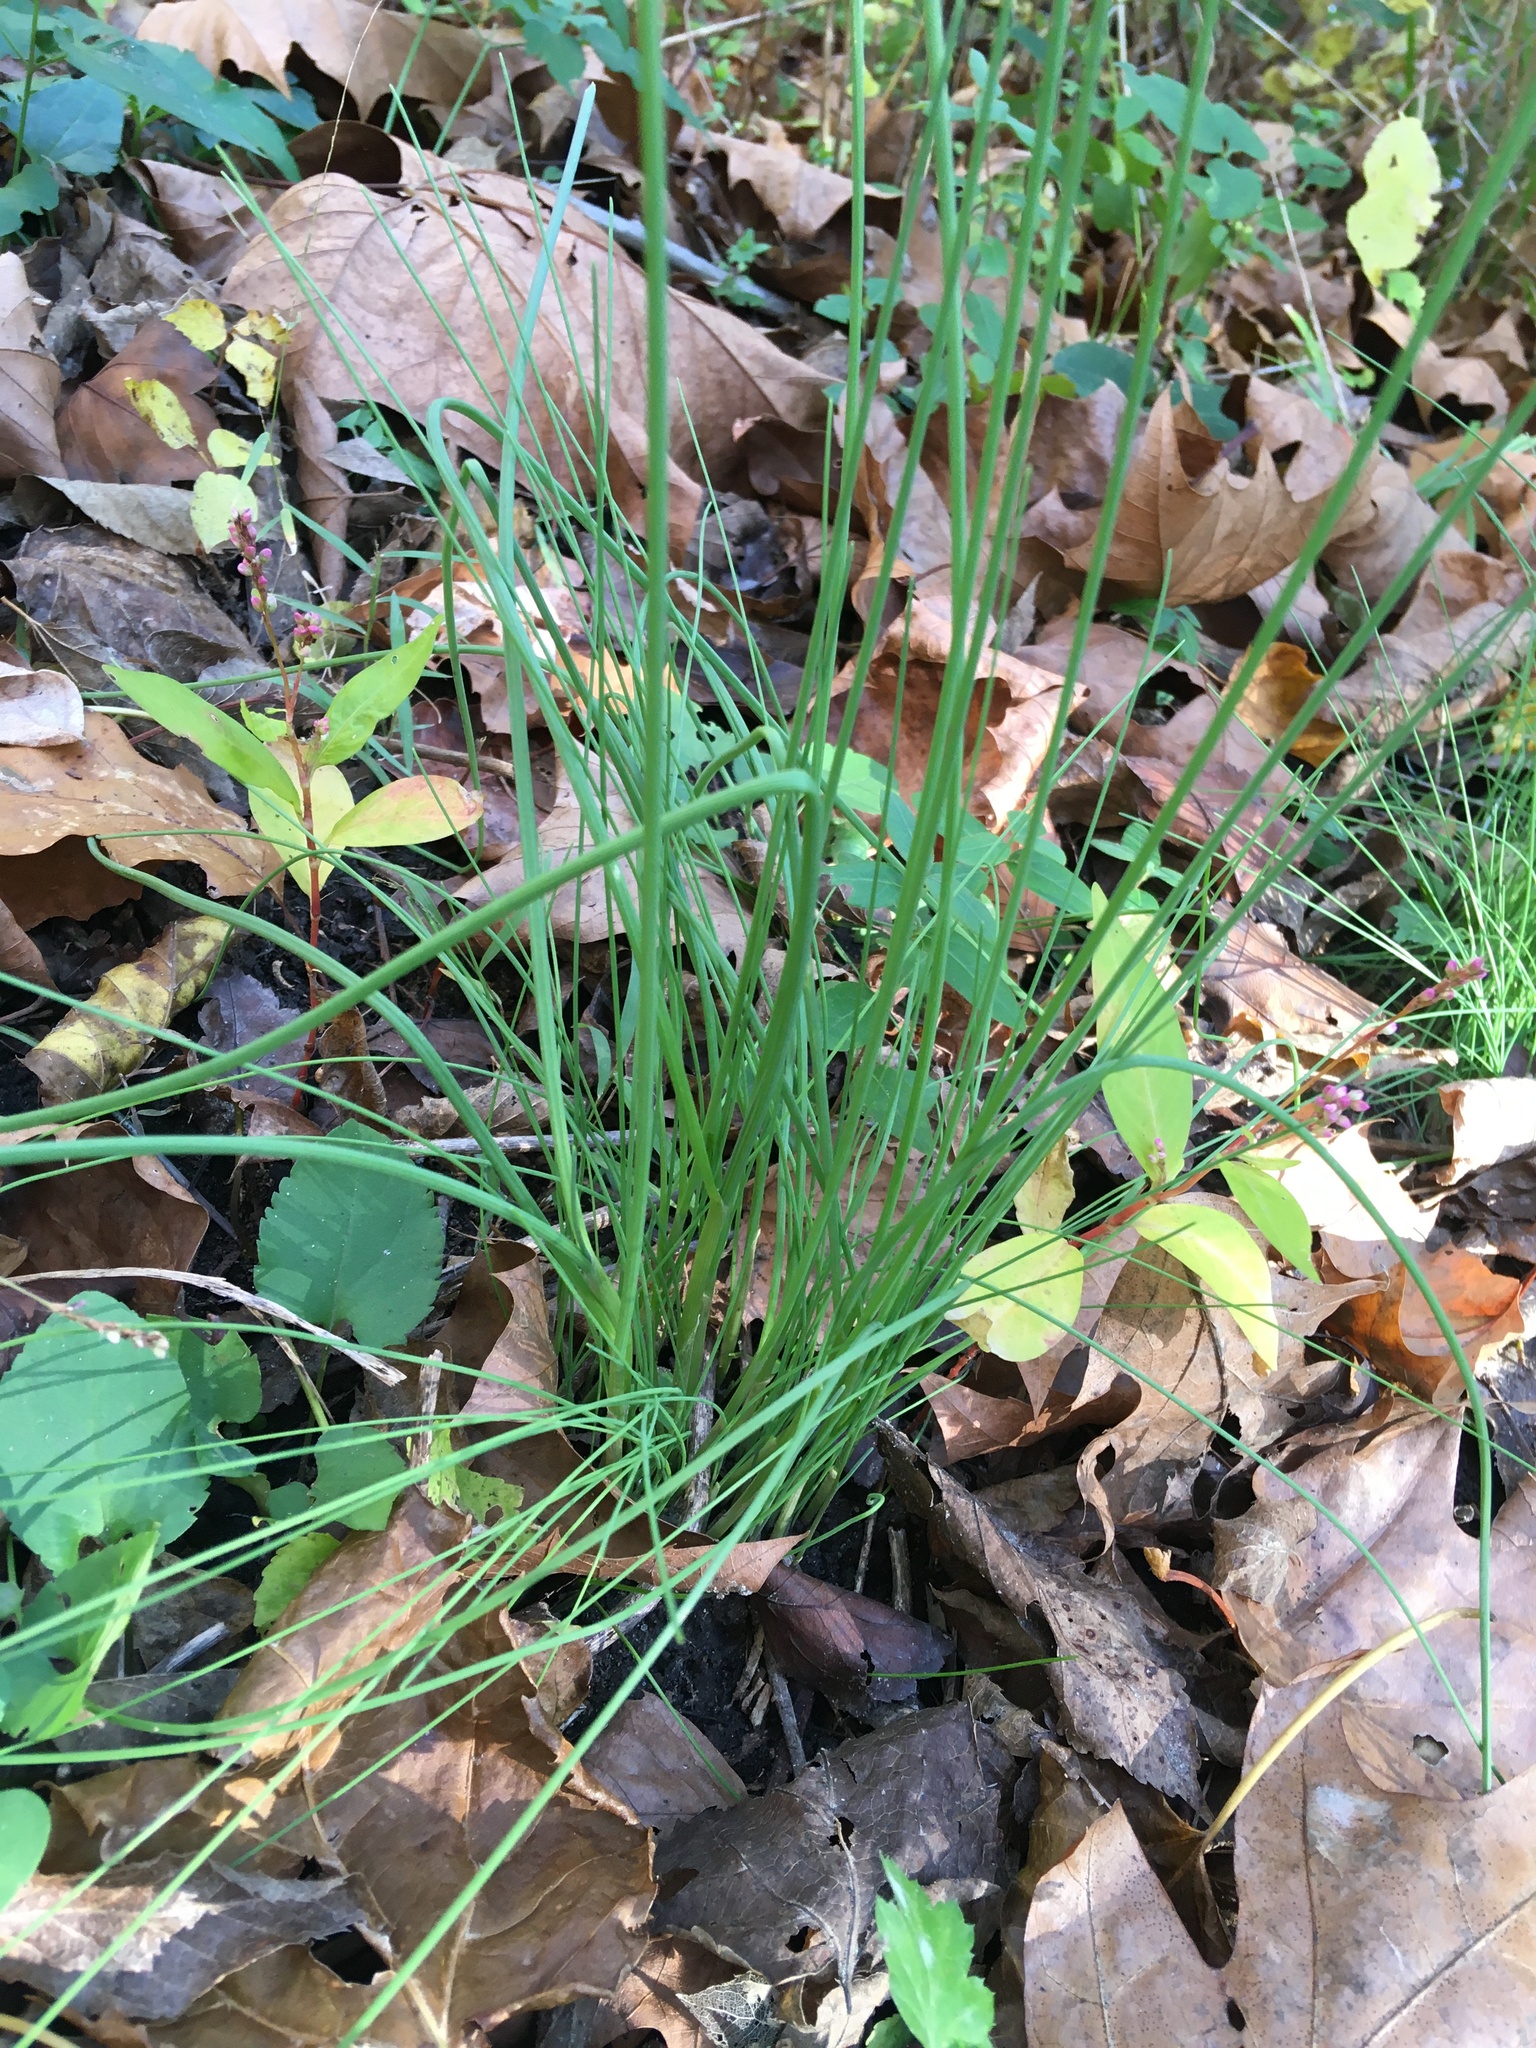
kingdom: Plantae
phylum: Tracheophyta
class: Liliopsida
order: Asparagales
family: Amaryllidaceae
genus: Allium
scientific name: Allium vineale
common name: Crow garlic
